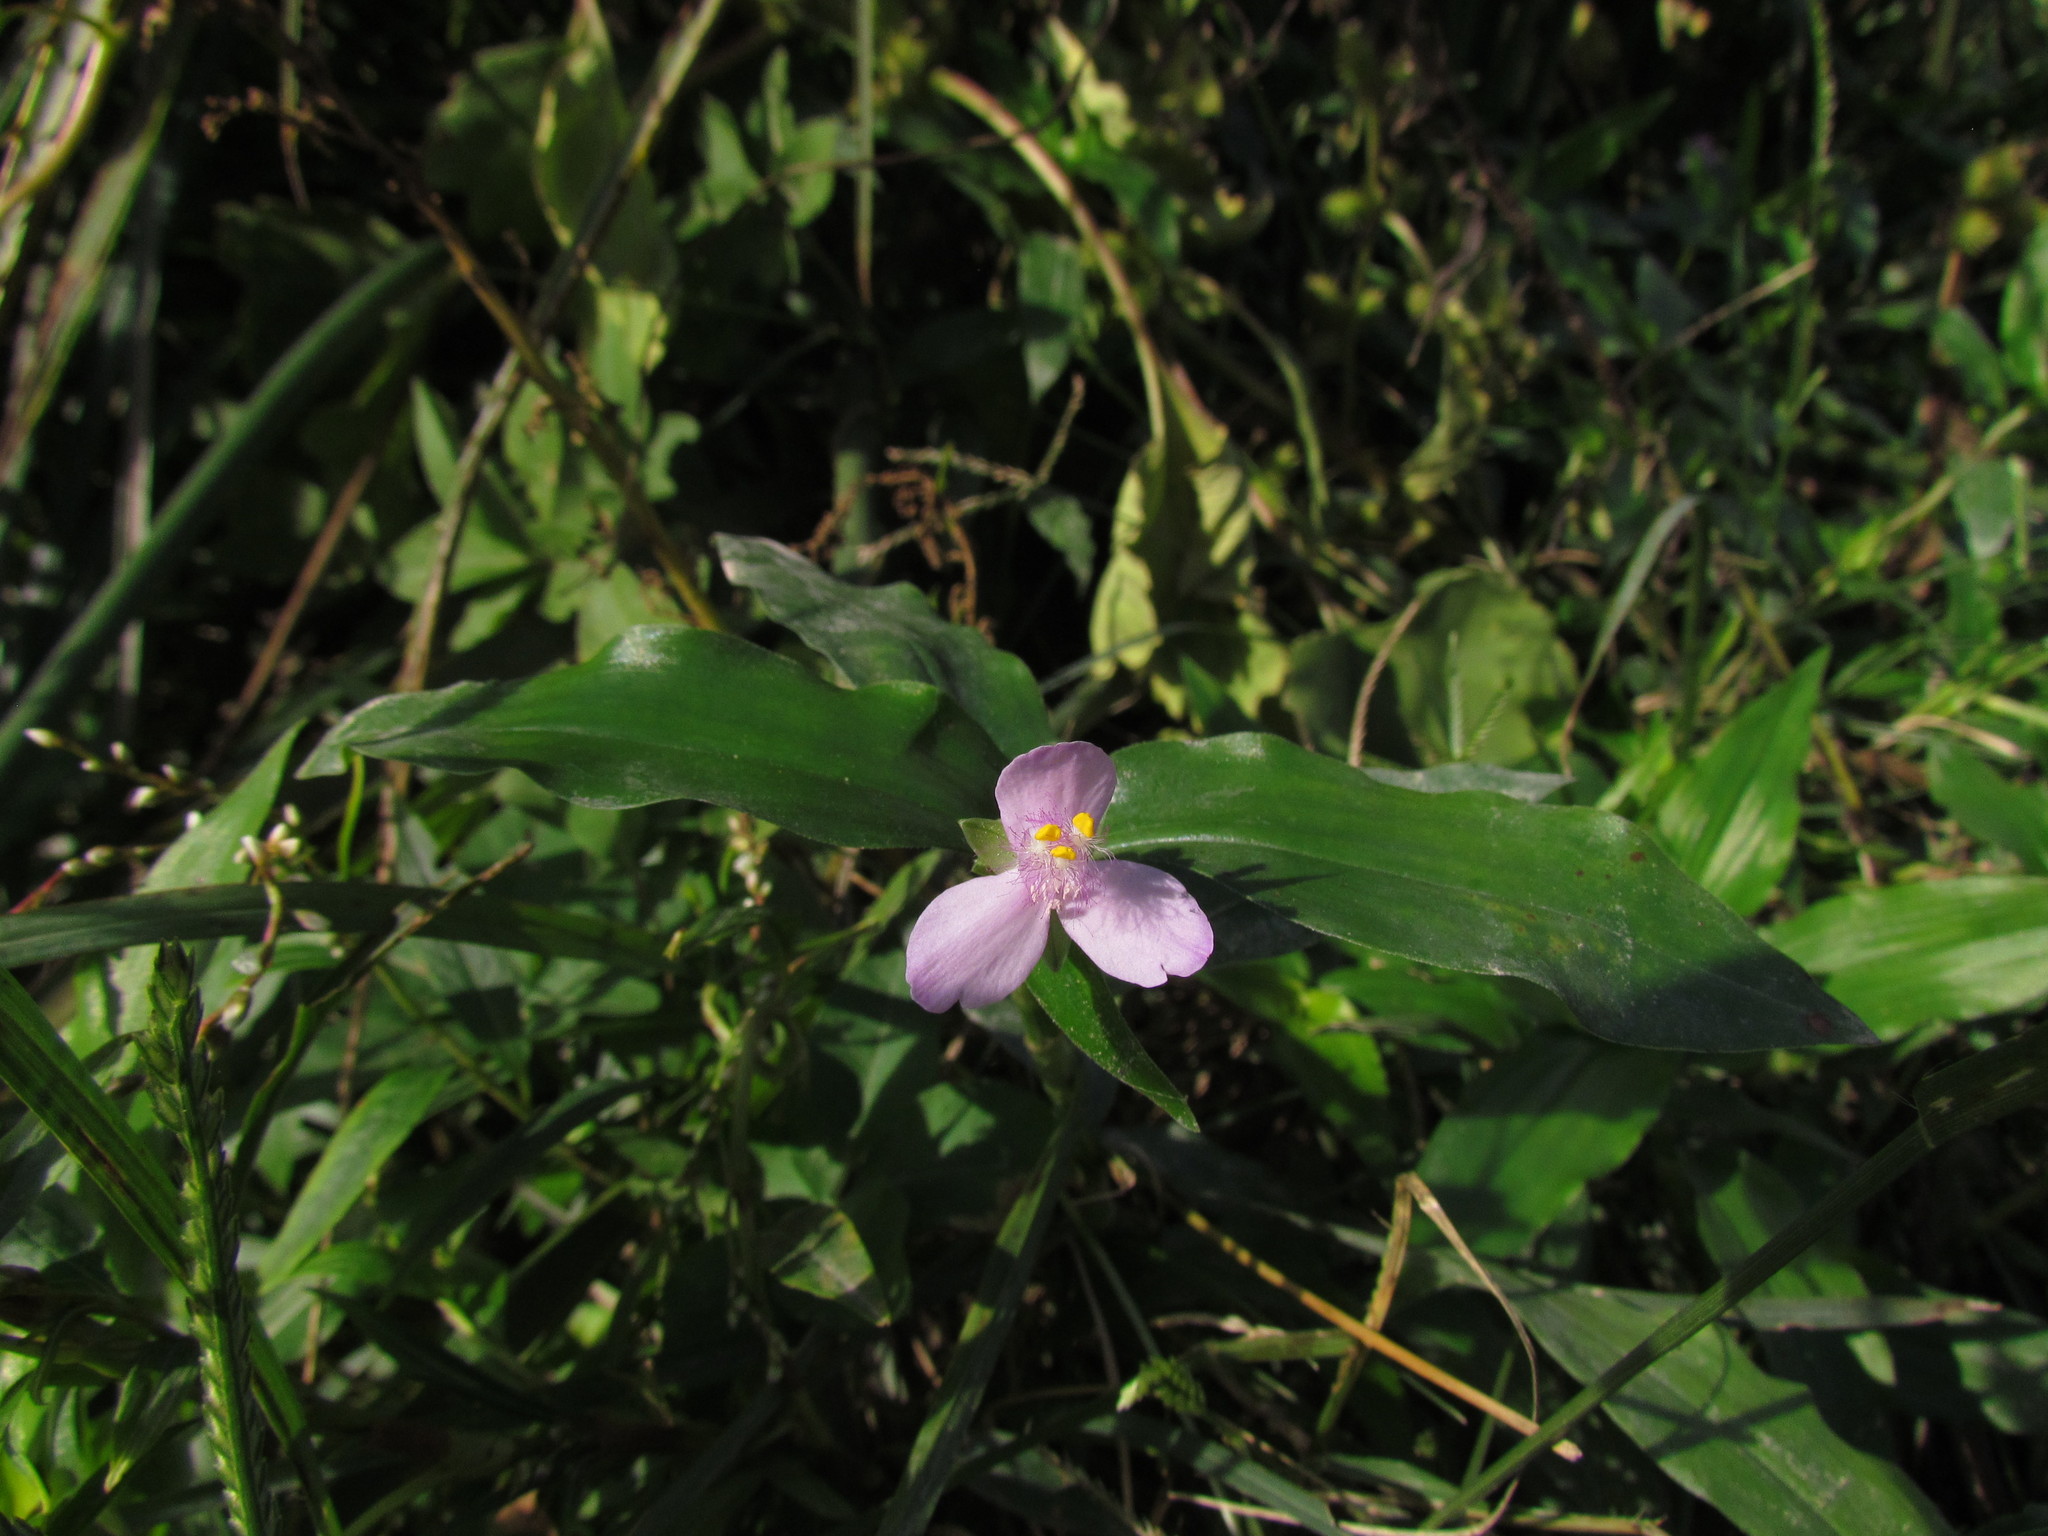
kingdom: Plantae
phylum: Tracheophyta
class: Liliopsida
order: Commelinales
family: Commelinaceae
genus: Callisia
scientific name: Callisia diuretica
